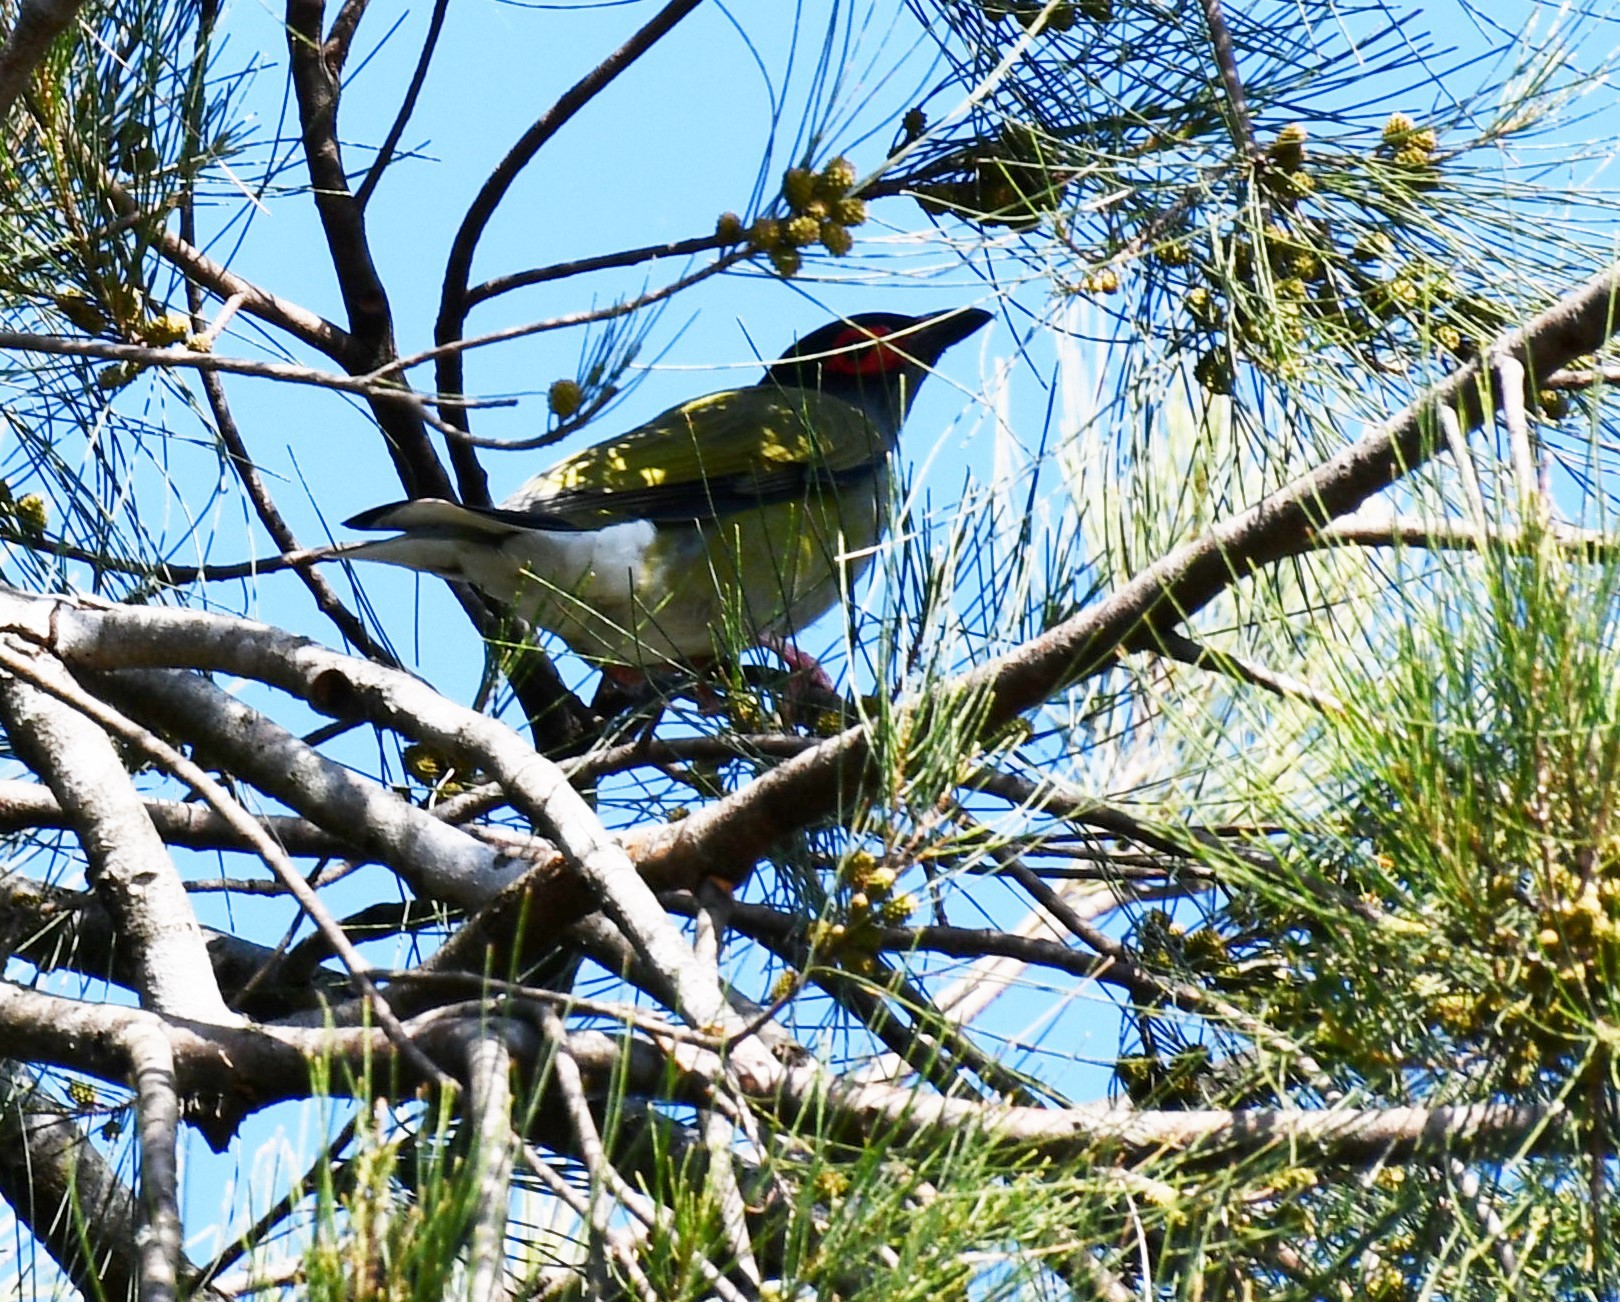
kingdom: Animalia
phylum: Chordata
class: Aves
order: Passeriformes
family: Oriolidae
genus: Sphecotheres
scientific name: Sphecotheres vieilloti
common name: Australasian figbird
